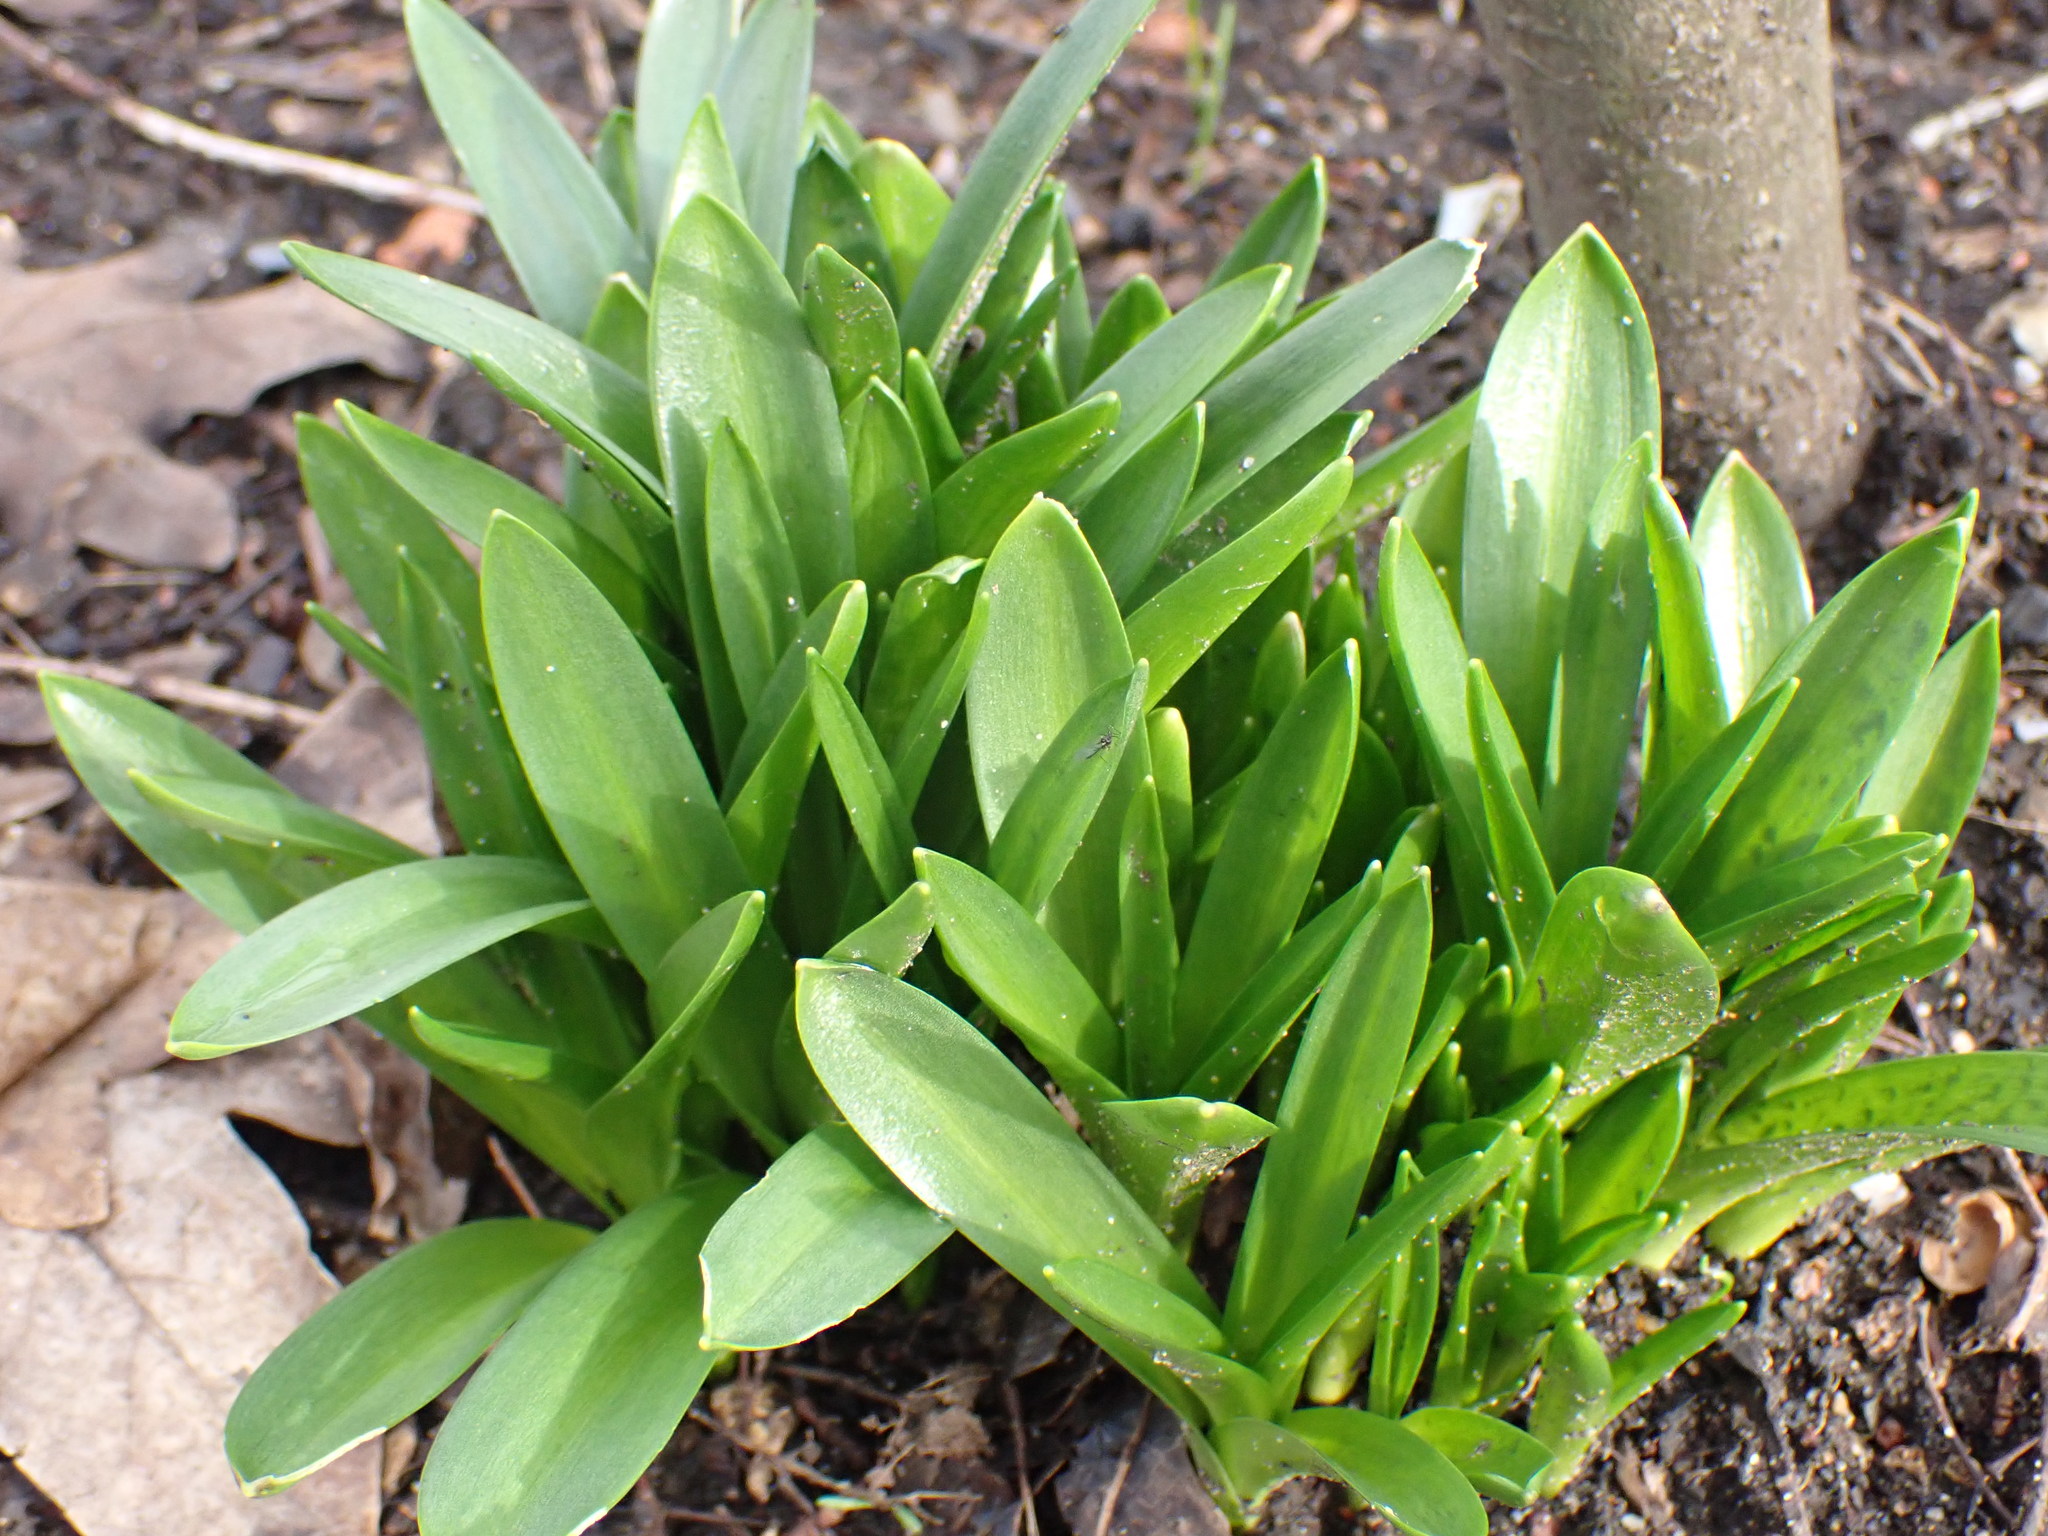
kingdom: Plantae
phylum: Tracheophyta
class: Liliopsida
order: Asparagales
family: Amaryllidaceae
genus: Galanthus
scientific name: Galanthus woronowii
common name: Green snowdrop
